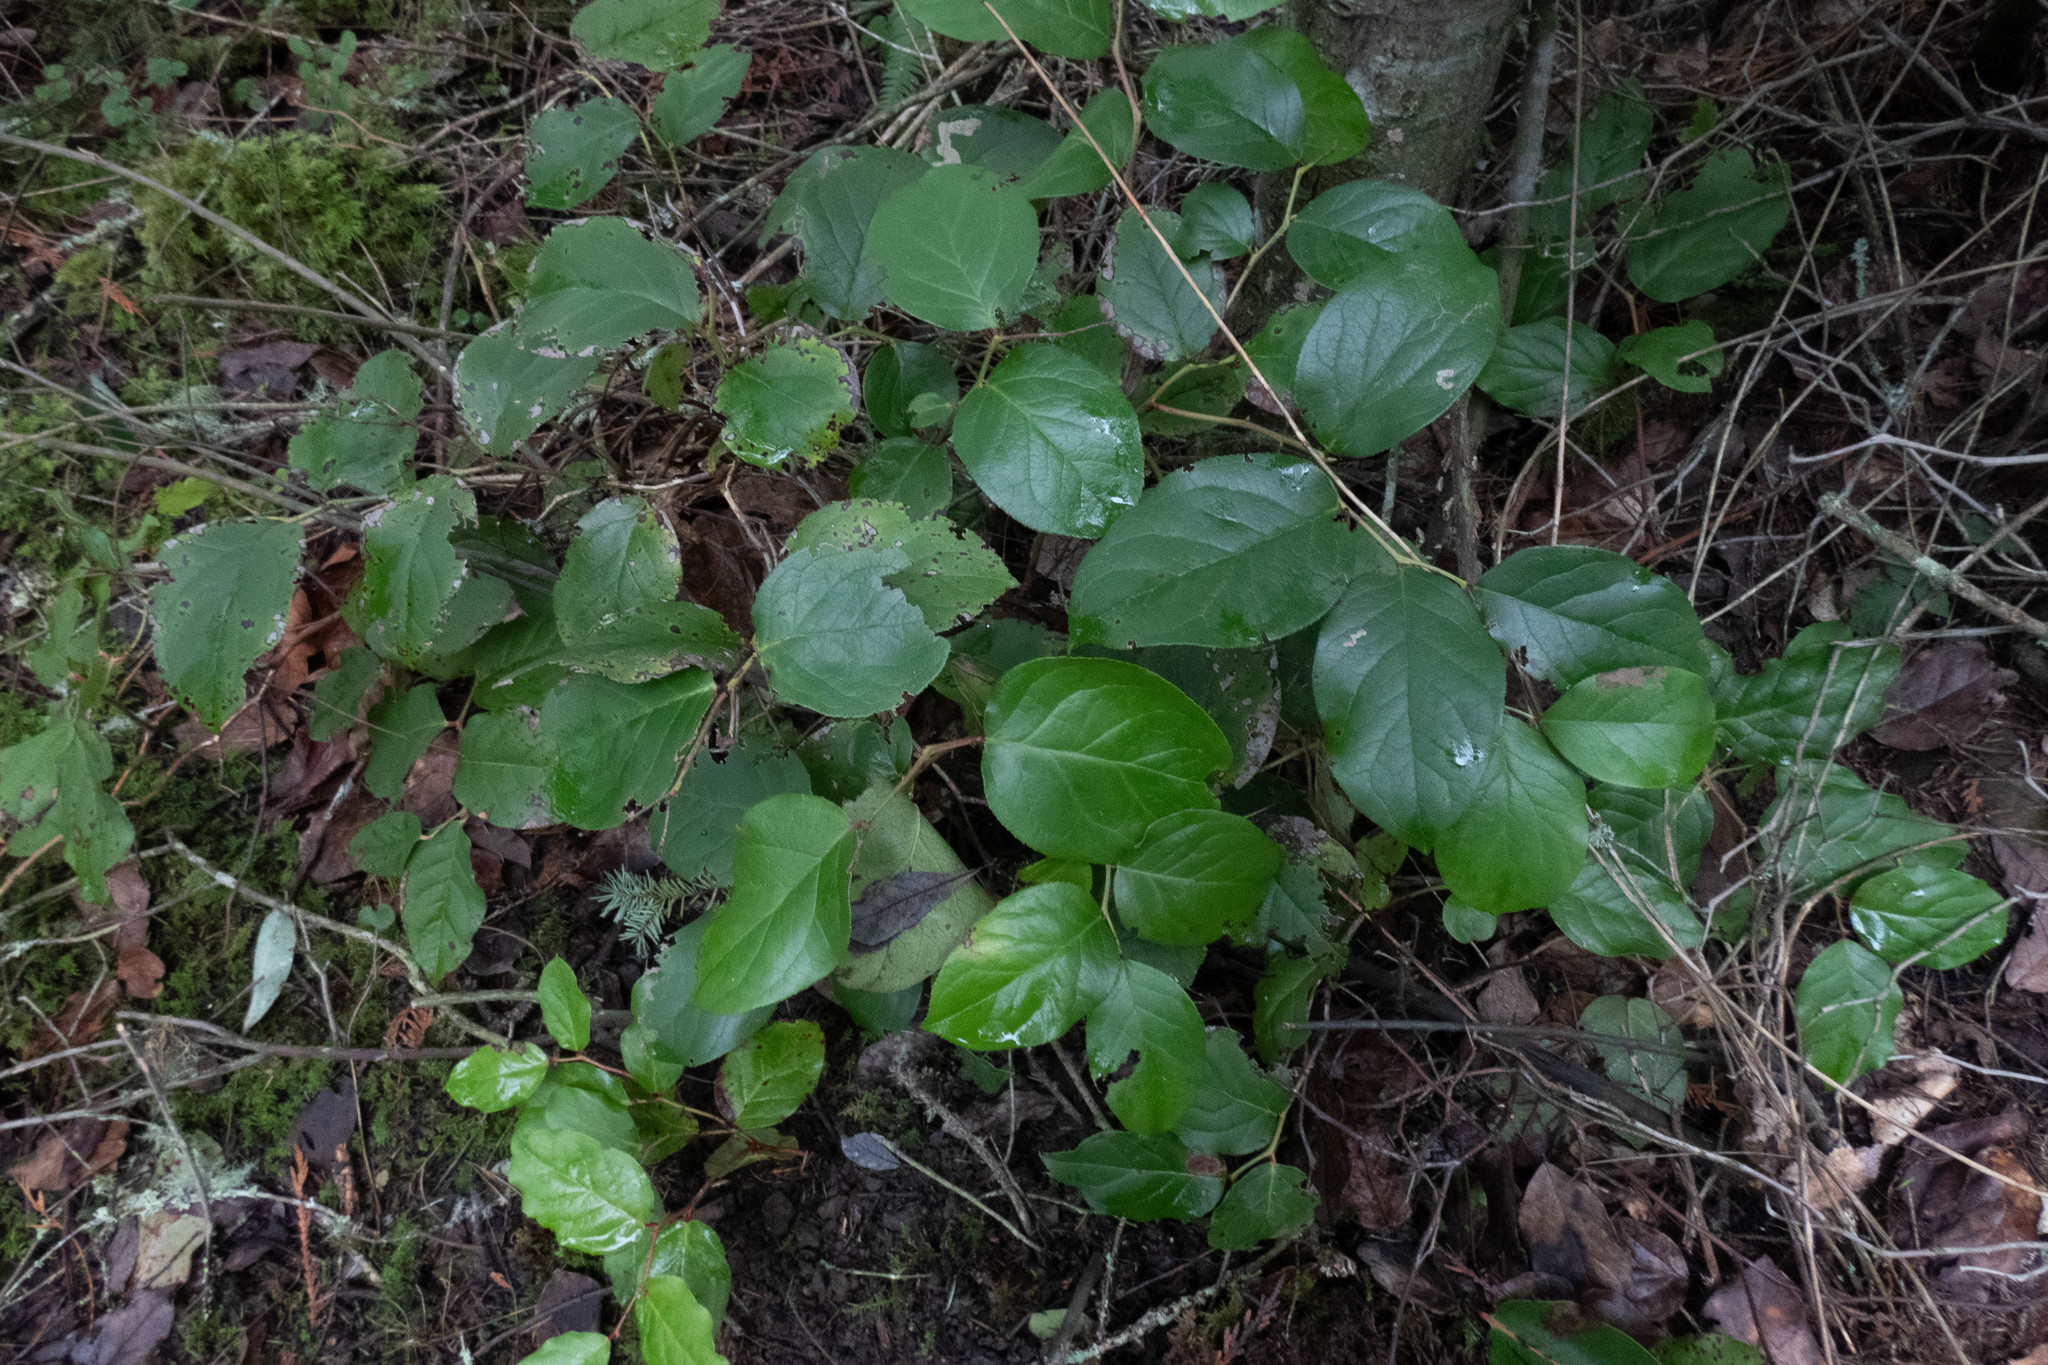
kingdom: Plantae
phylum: Tracheophyta
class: Magnoliopsida
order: Ericales
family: Ericaceae
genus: Gaultheria
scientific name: Gaultheria shallon
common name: Shallon
